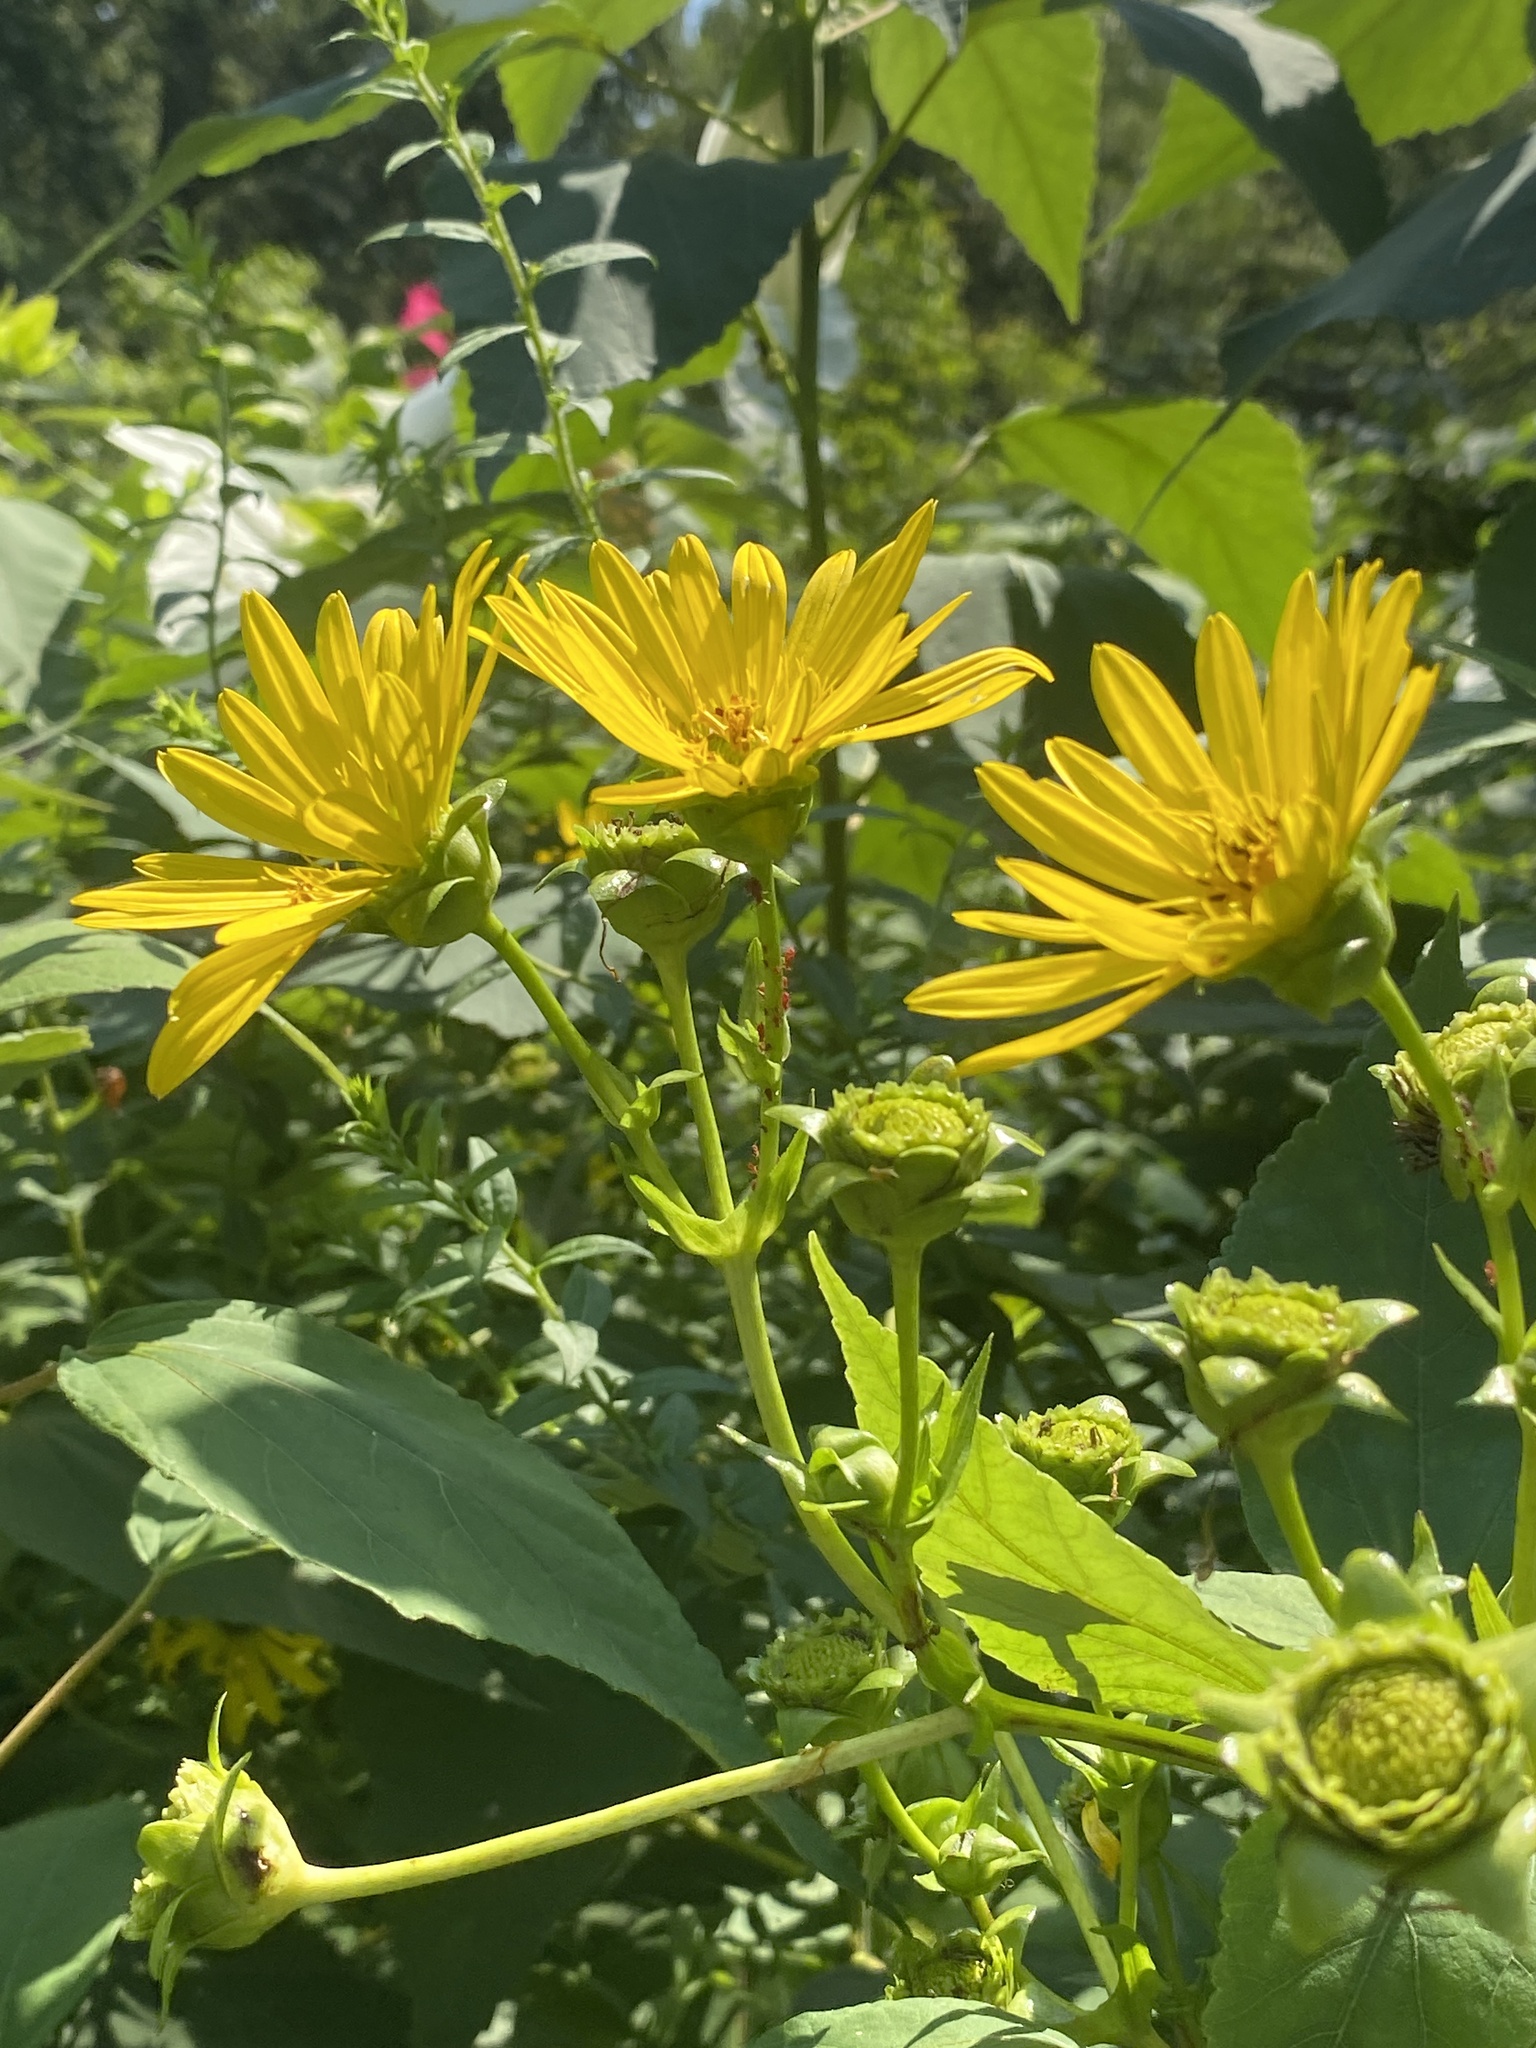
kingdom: Plantae
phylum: Tracheophyta
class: Magnoliopsida
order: Asterales
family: Asteraceae
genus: Silphium
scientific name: Silphium perfoliatum
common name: Cup-plant
